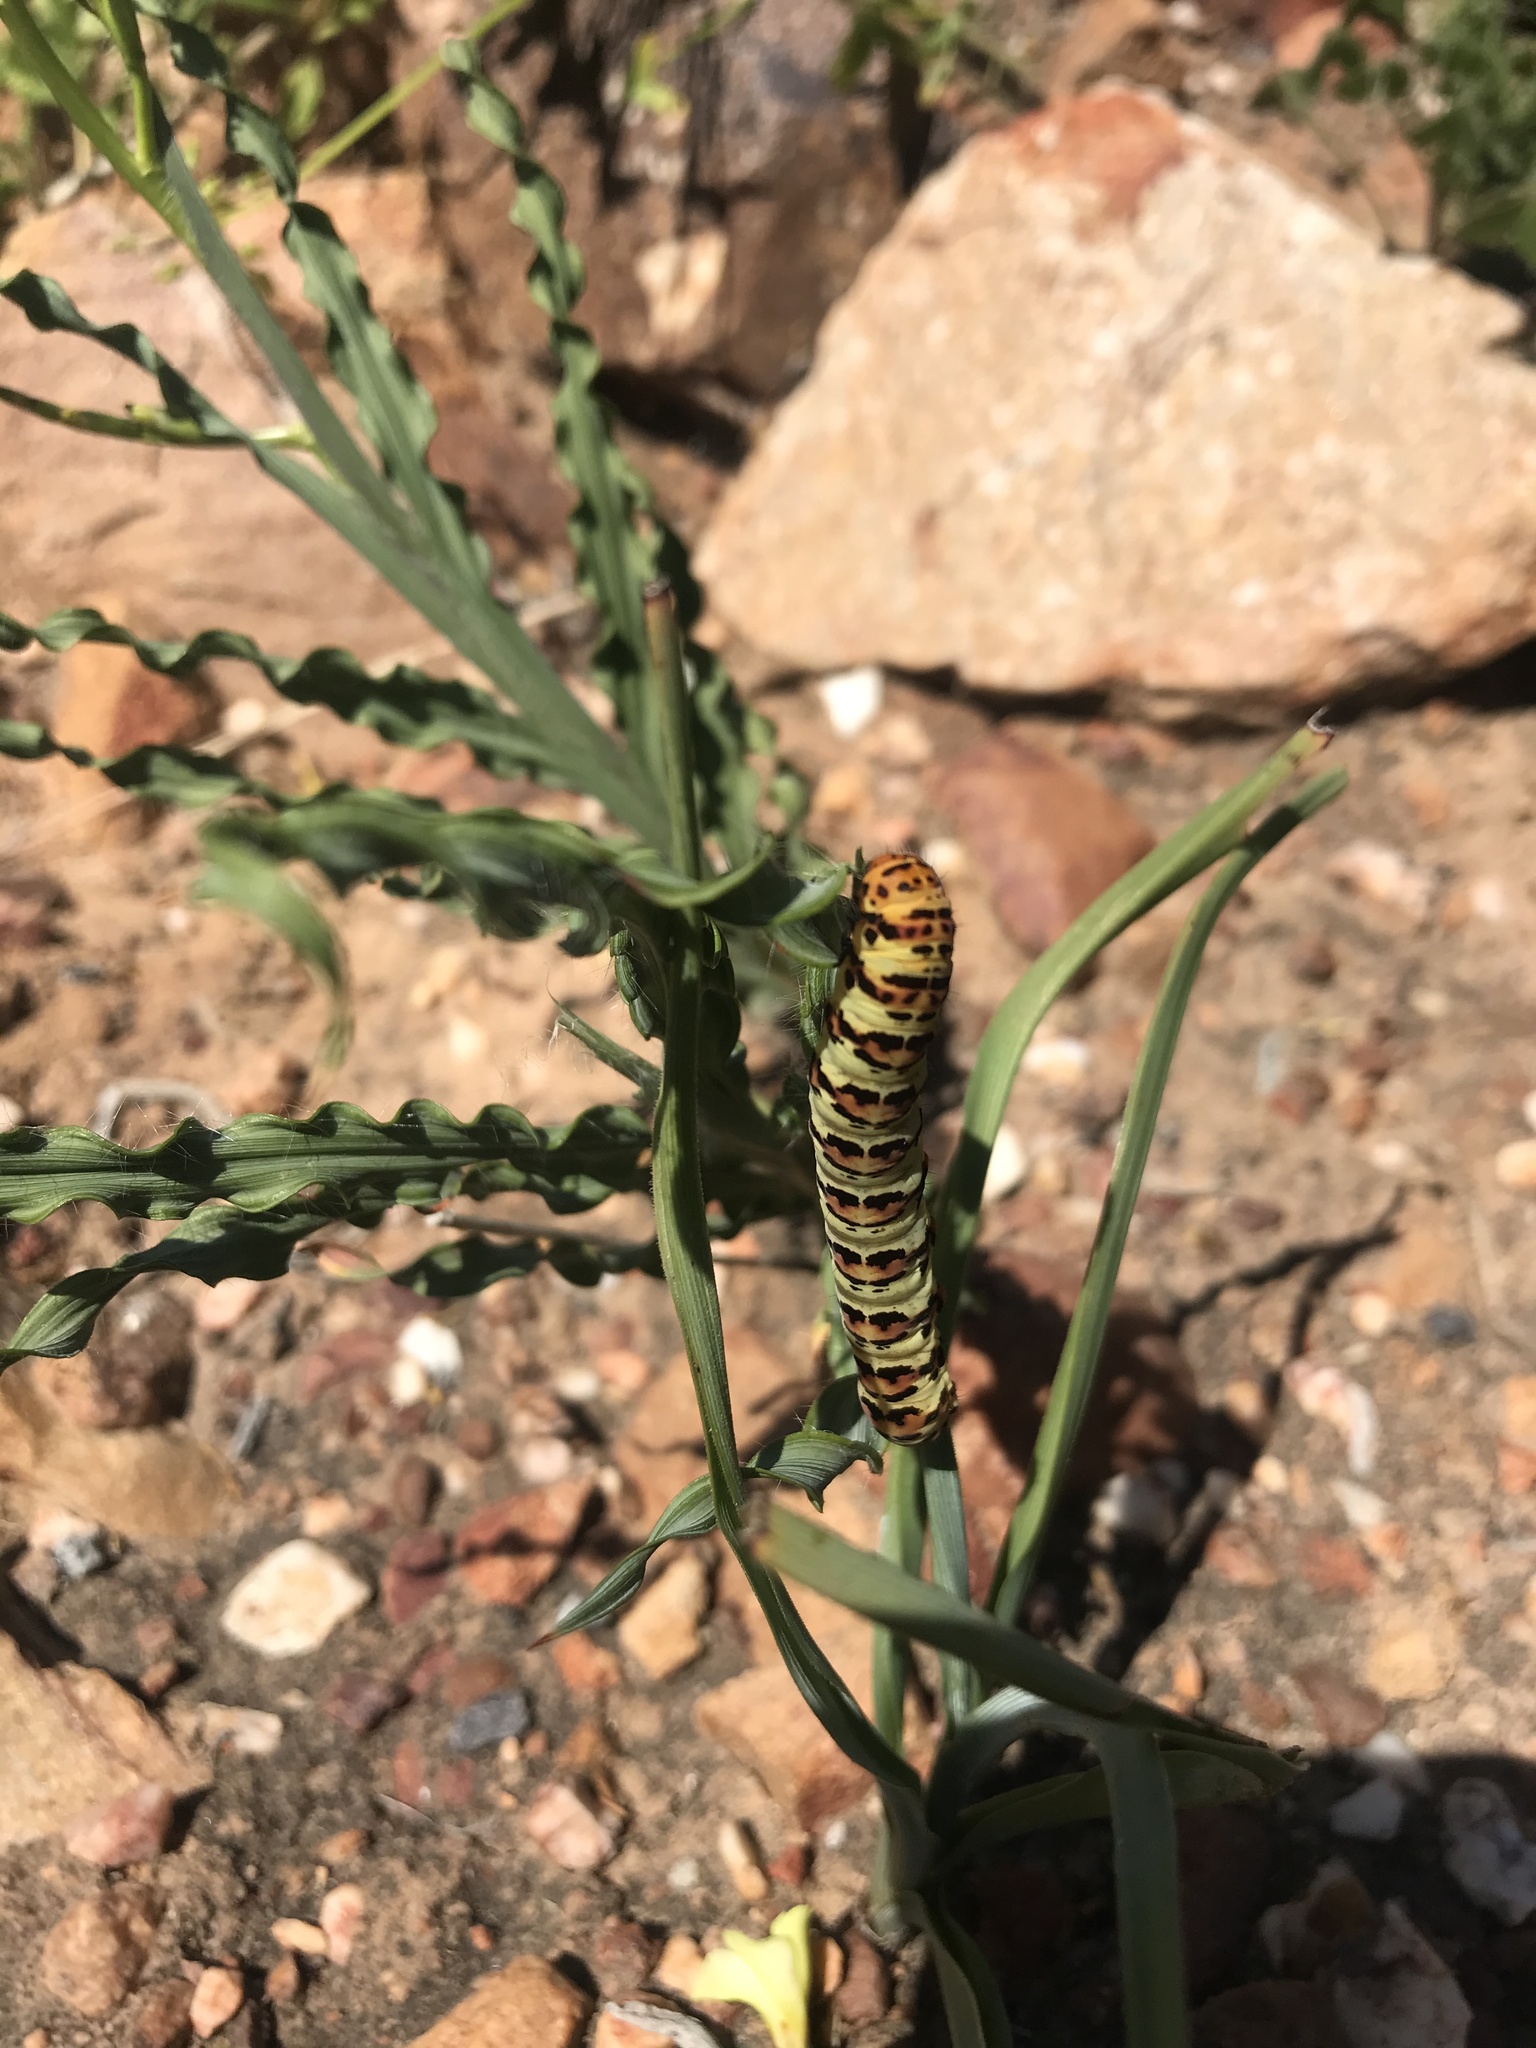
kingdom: Animalia
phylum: Arthropoda
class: Insecta
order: Lepidoptera
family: Noctuidae
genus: Diaphone
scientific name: Diaphone eumela
